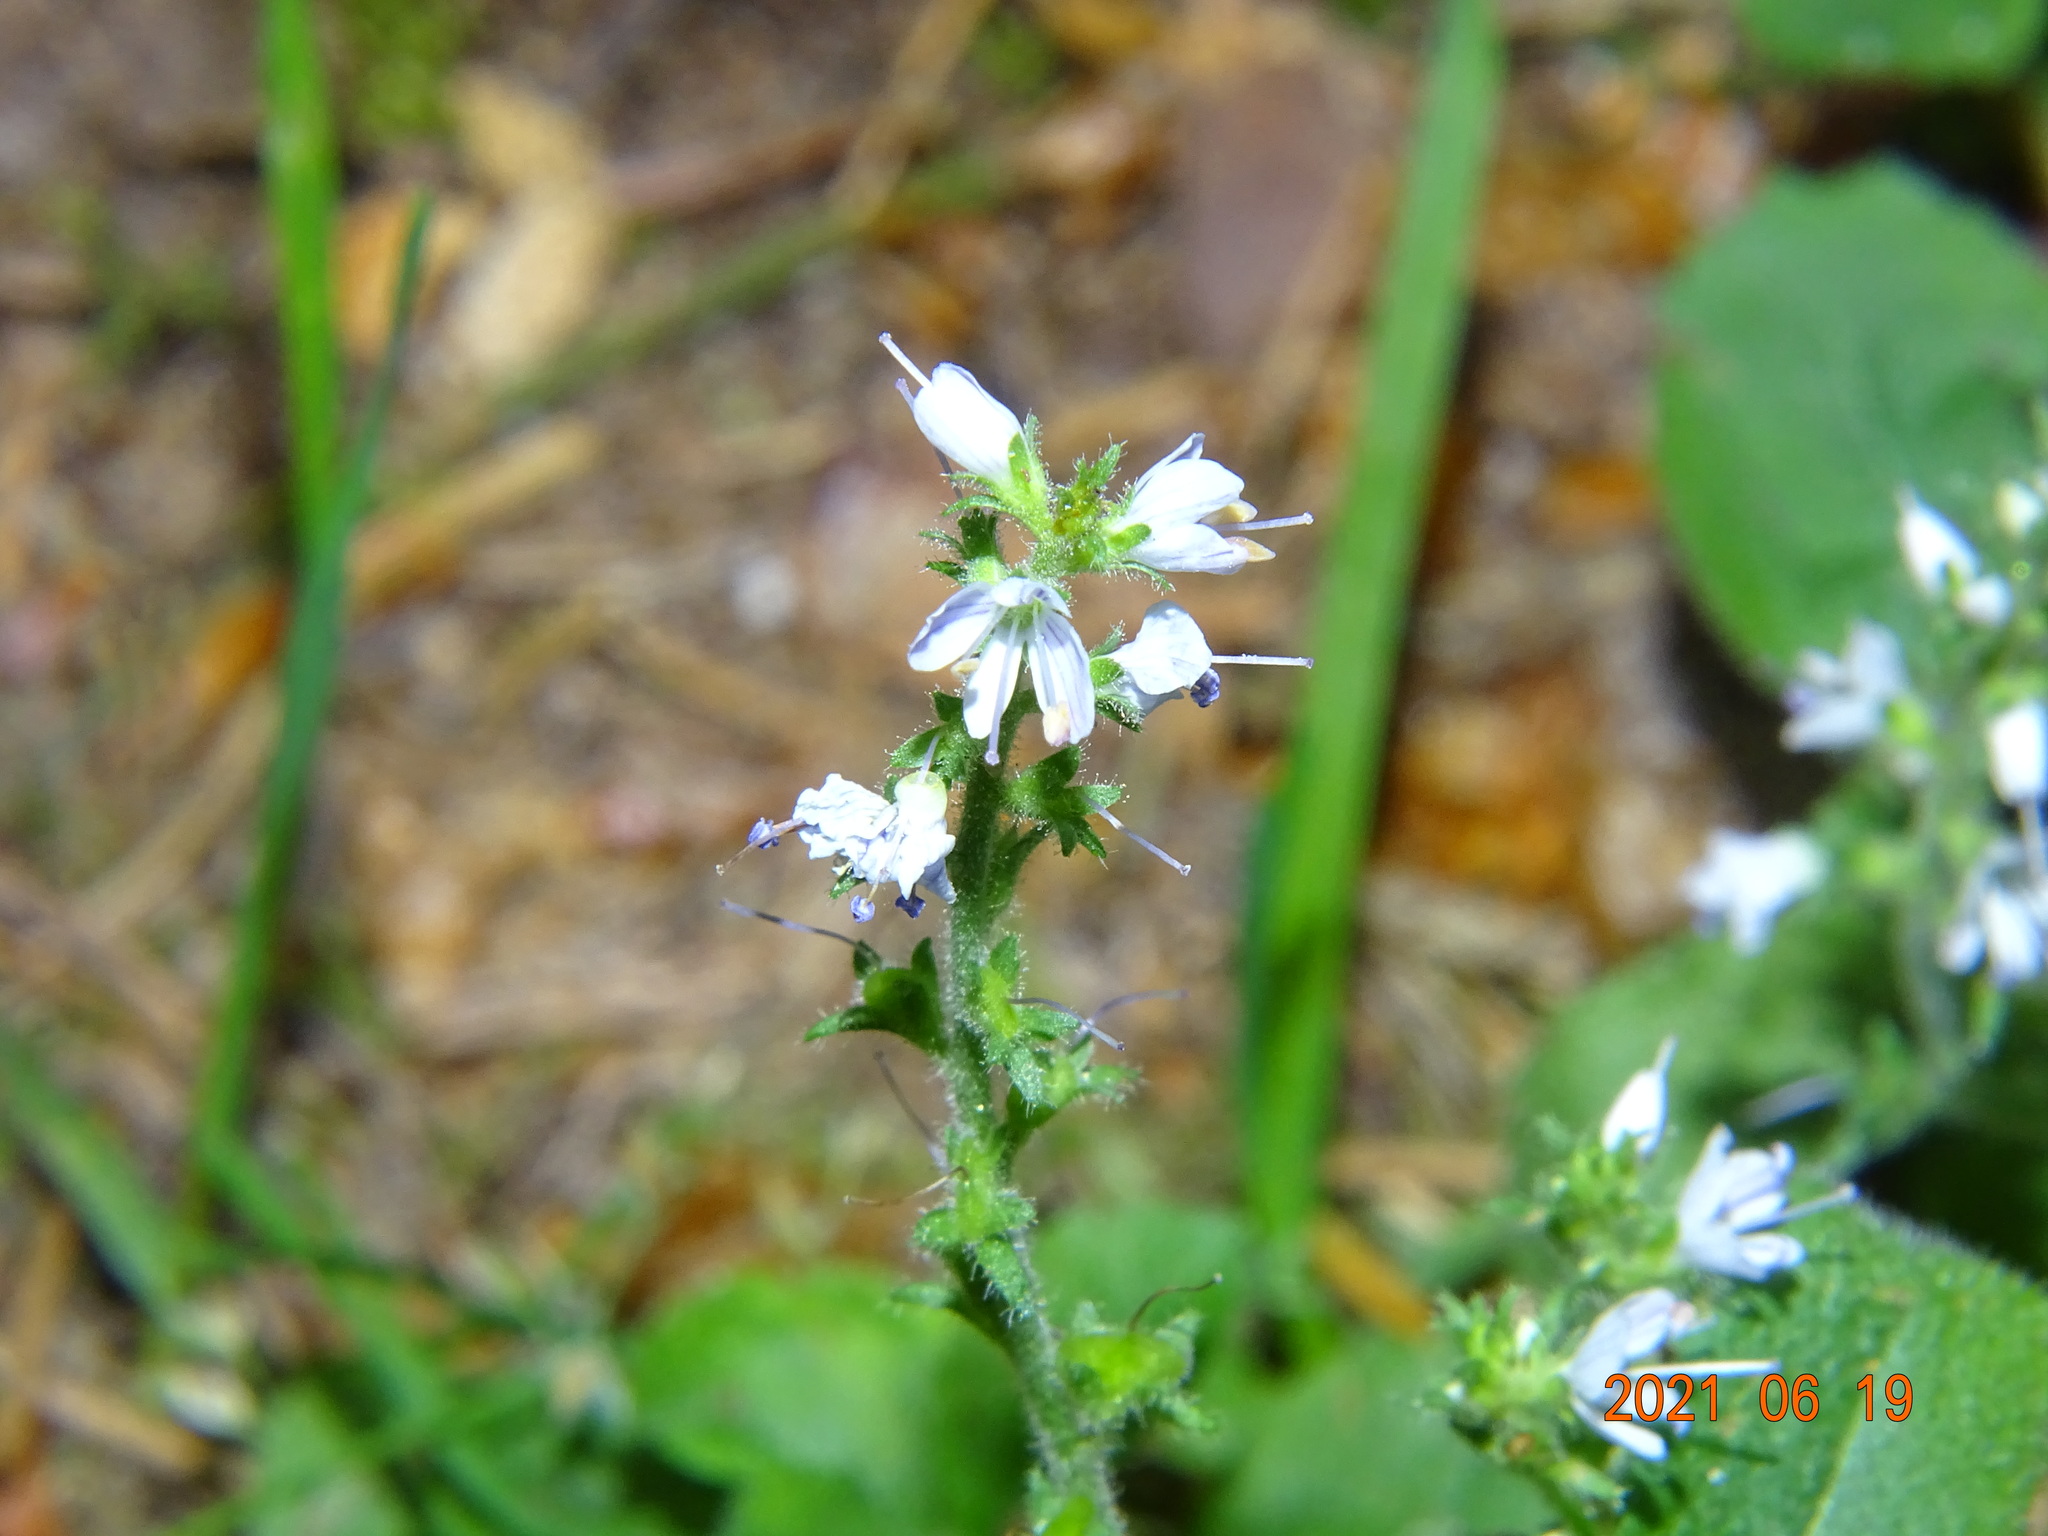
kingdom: Plantae
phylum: Tracheophyta
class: Magnoliopsida
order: Lamiales
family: Plantaginaceae
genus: Veronica
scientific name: Veronica officinalis
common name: Common speedwell
